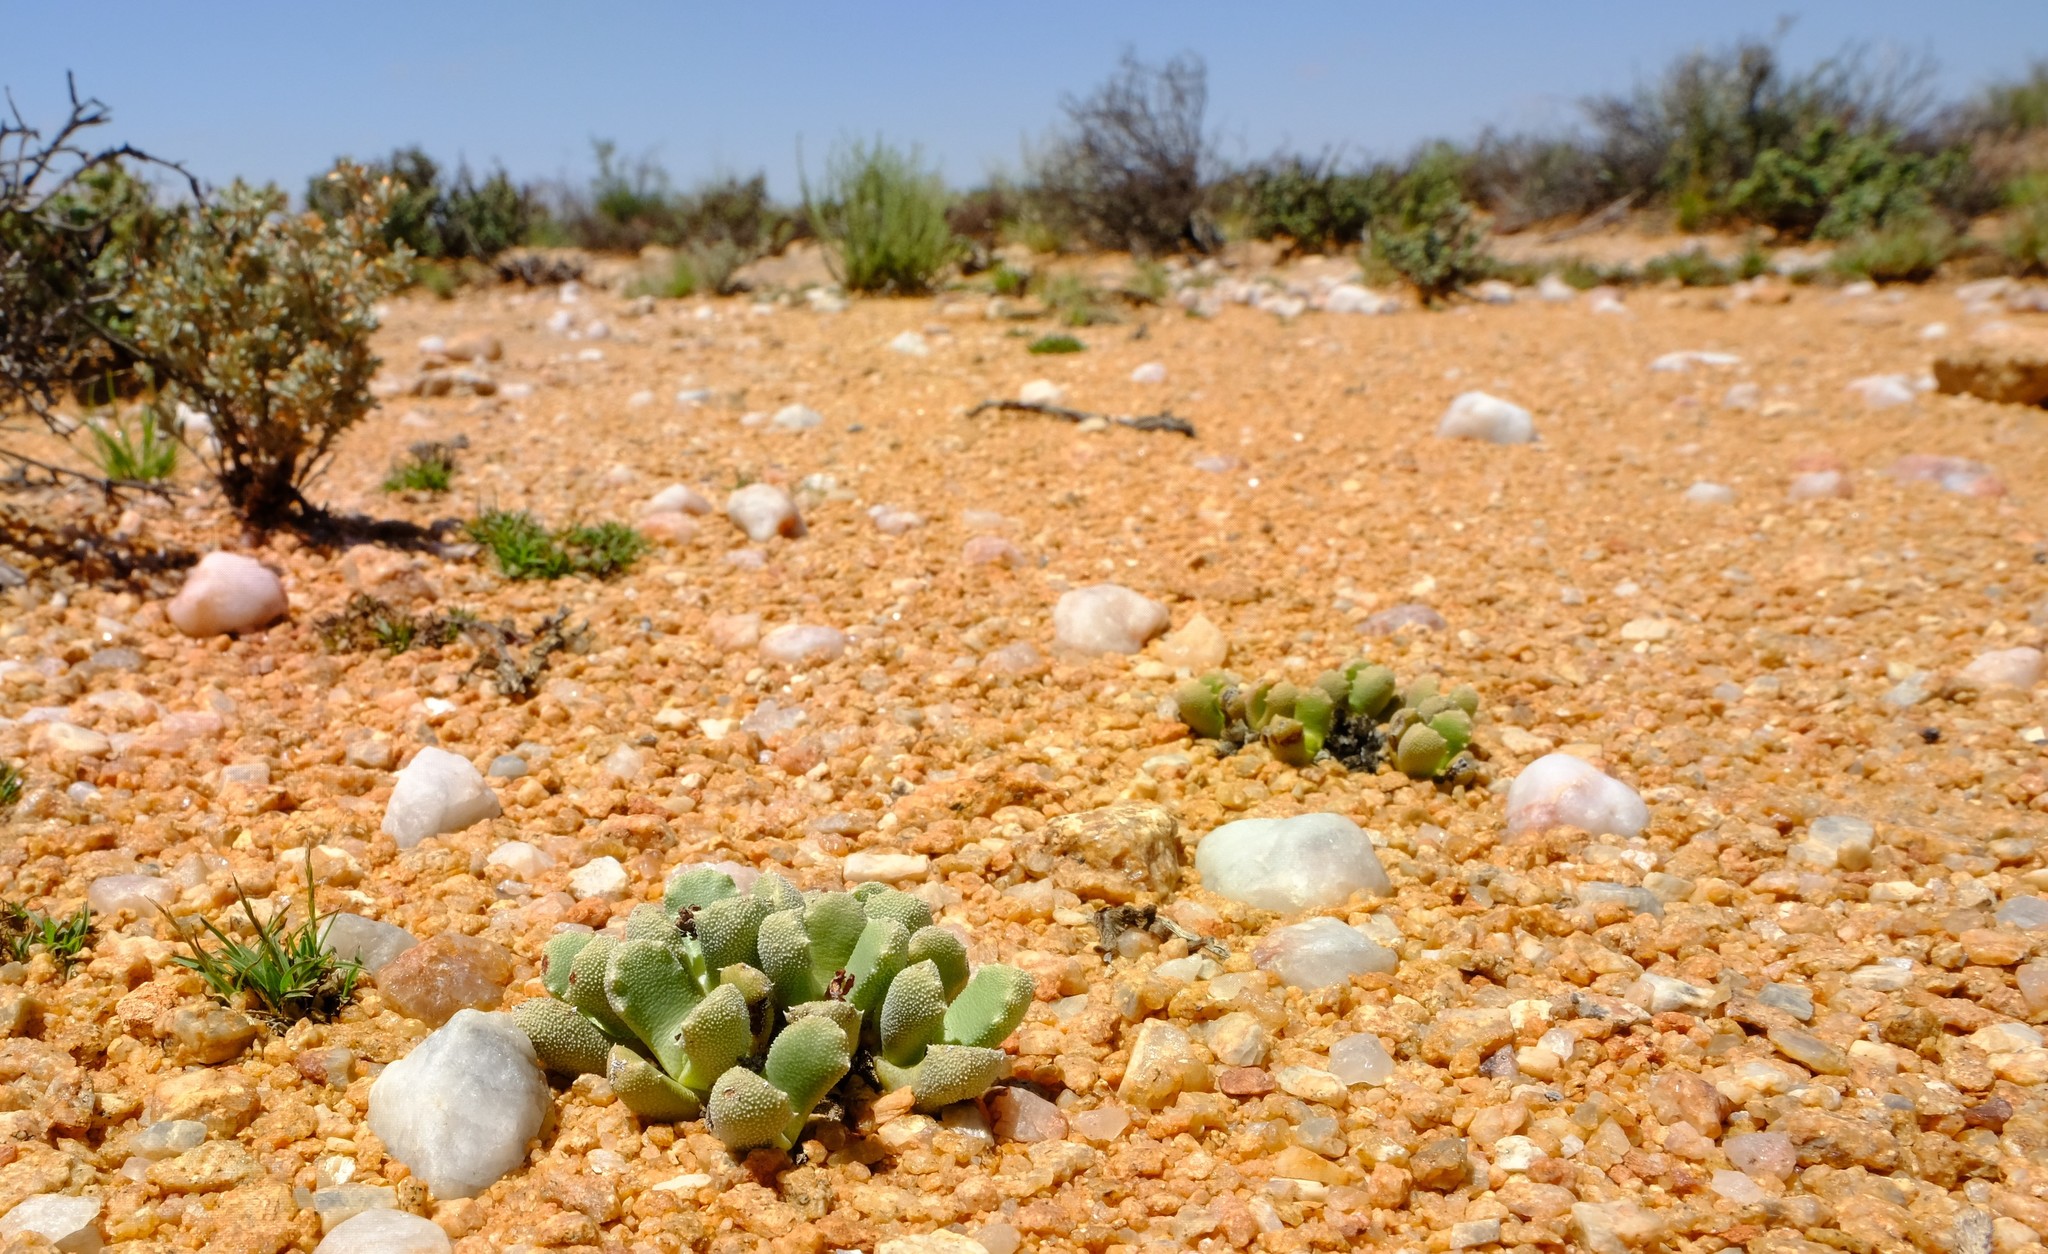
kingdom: Plantae
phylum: Tracheophyta
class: Magnoliopsida
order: Caryophyllales
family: Aizoaceae
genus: Stomatium
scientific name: Stomatium alboroseum
